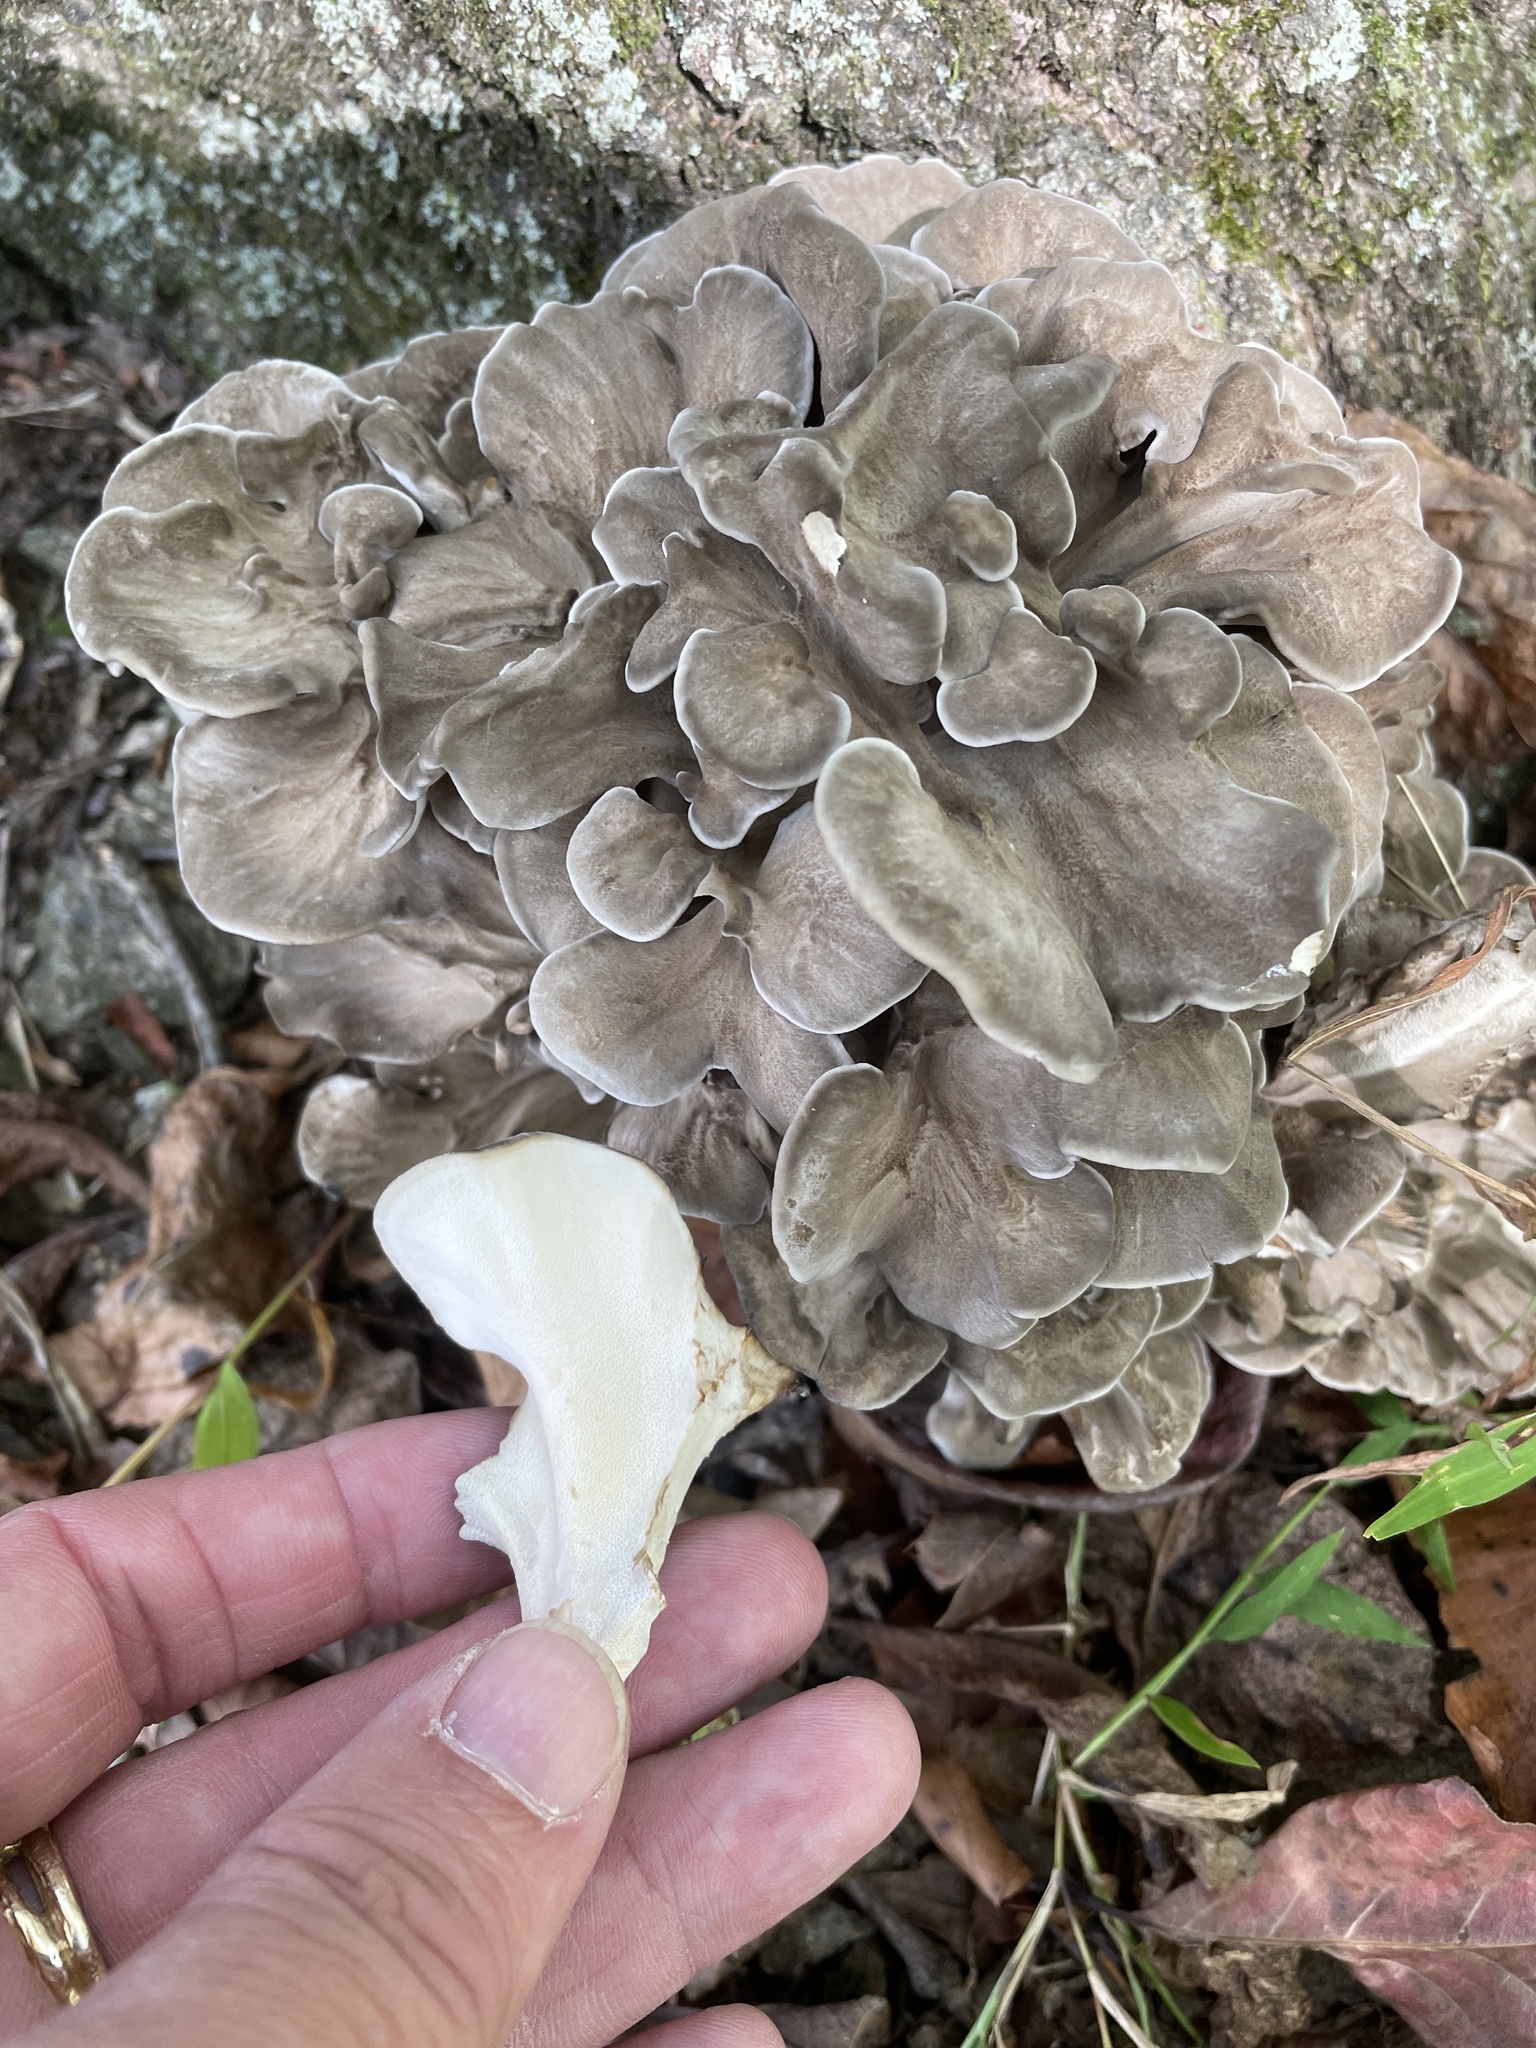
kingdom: Fungi
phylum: Basidiomycota
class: Agaricomycetes
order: Polyporales
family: Grifolaceae
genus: Grifola
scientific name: Grifola frondosa
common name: Hen of the woods
